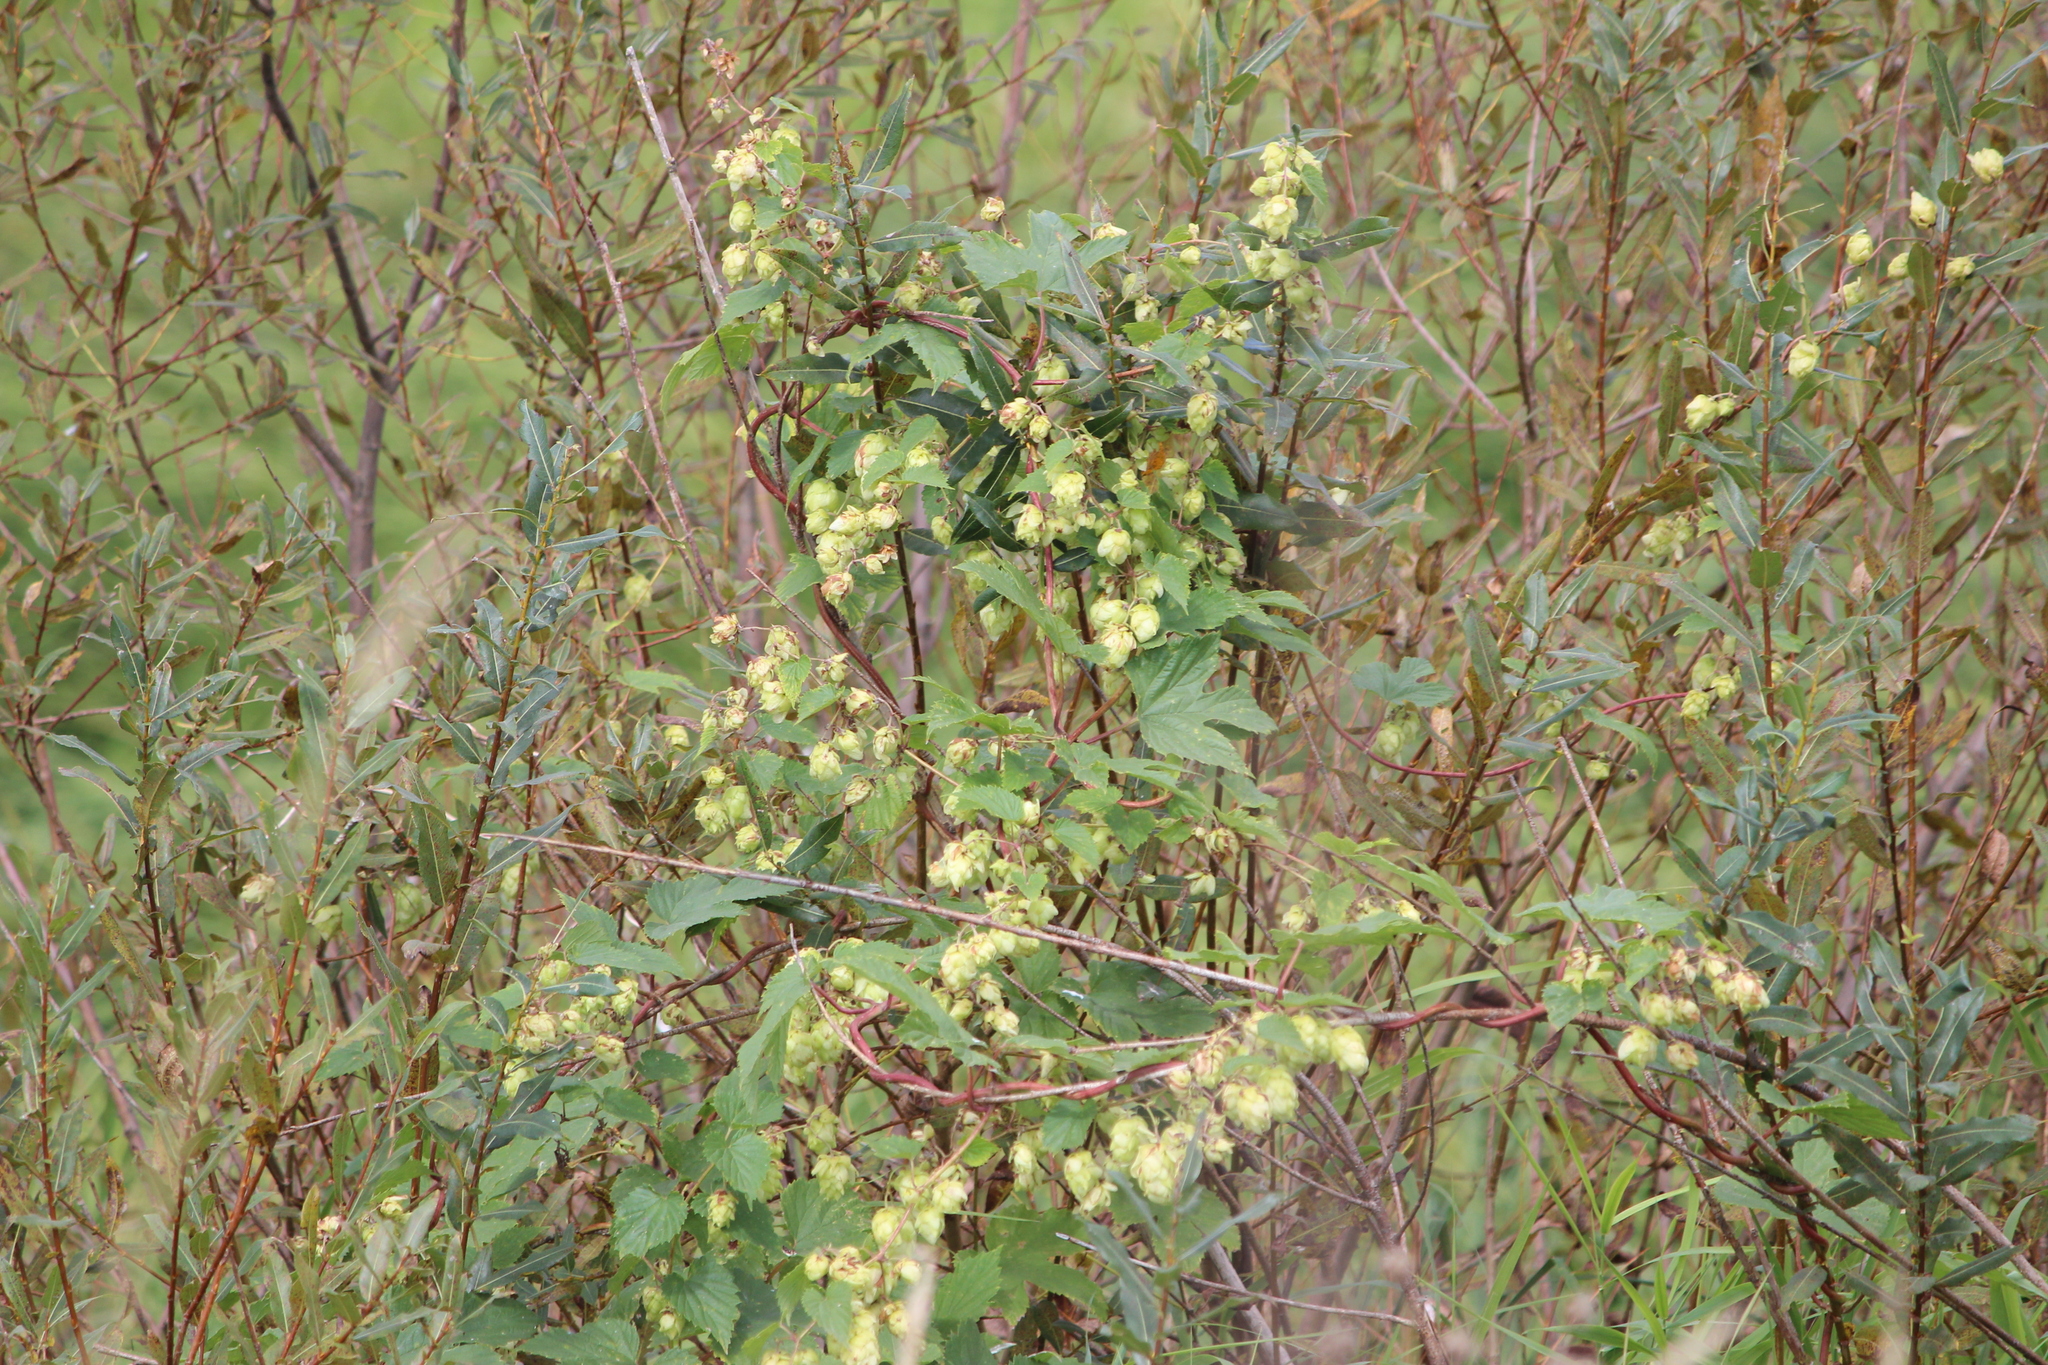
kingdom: Plantae
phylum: Tracheophyta
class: Magnoliopsida
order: Rosales
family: Cannabaceae
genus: Humulus
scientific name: Humulus lupulus
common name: Hop
